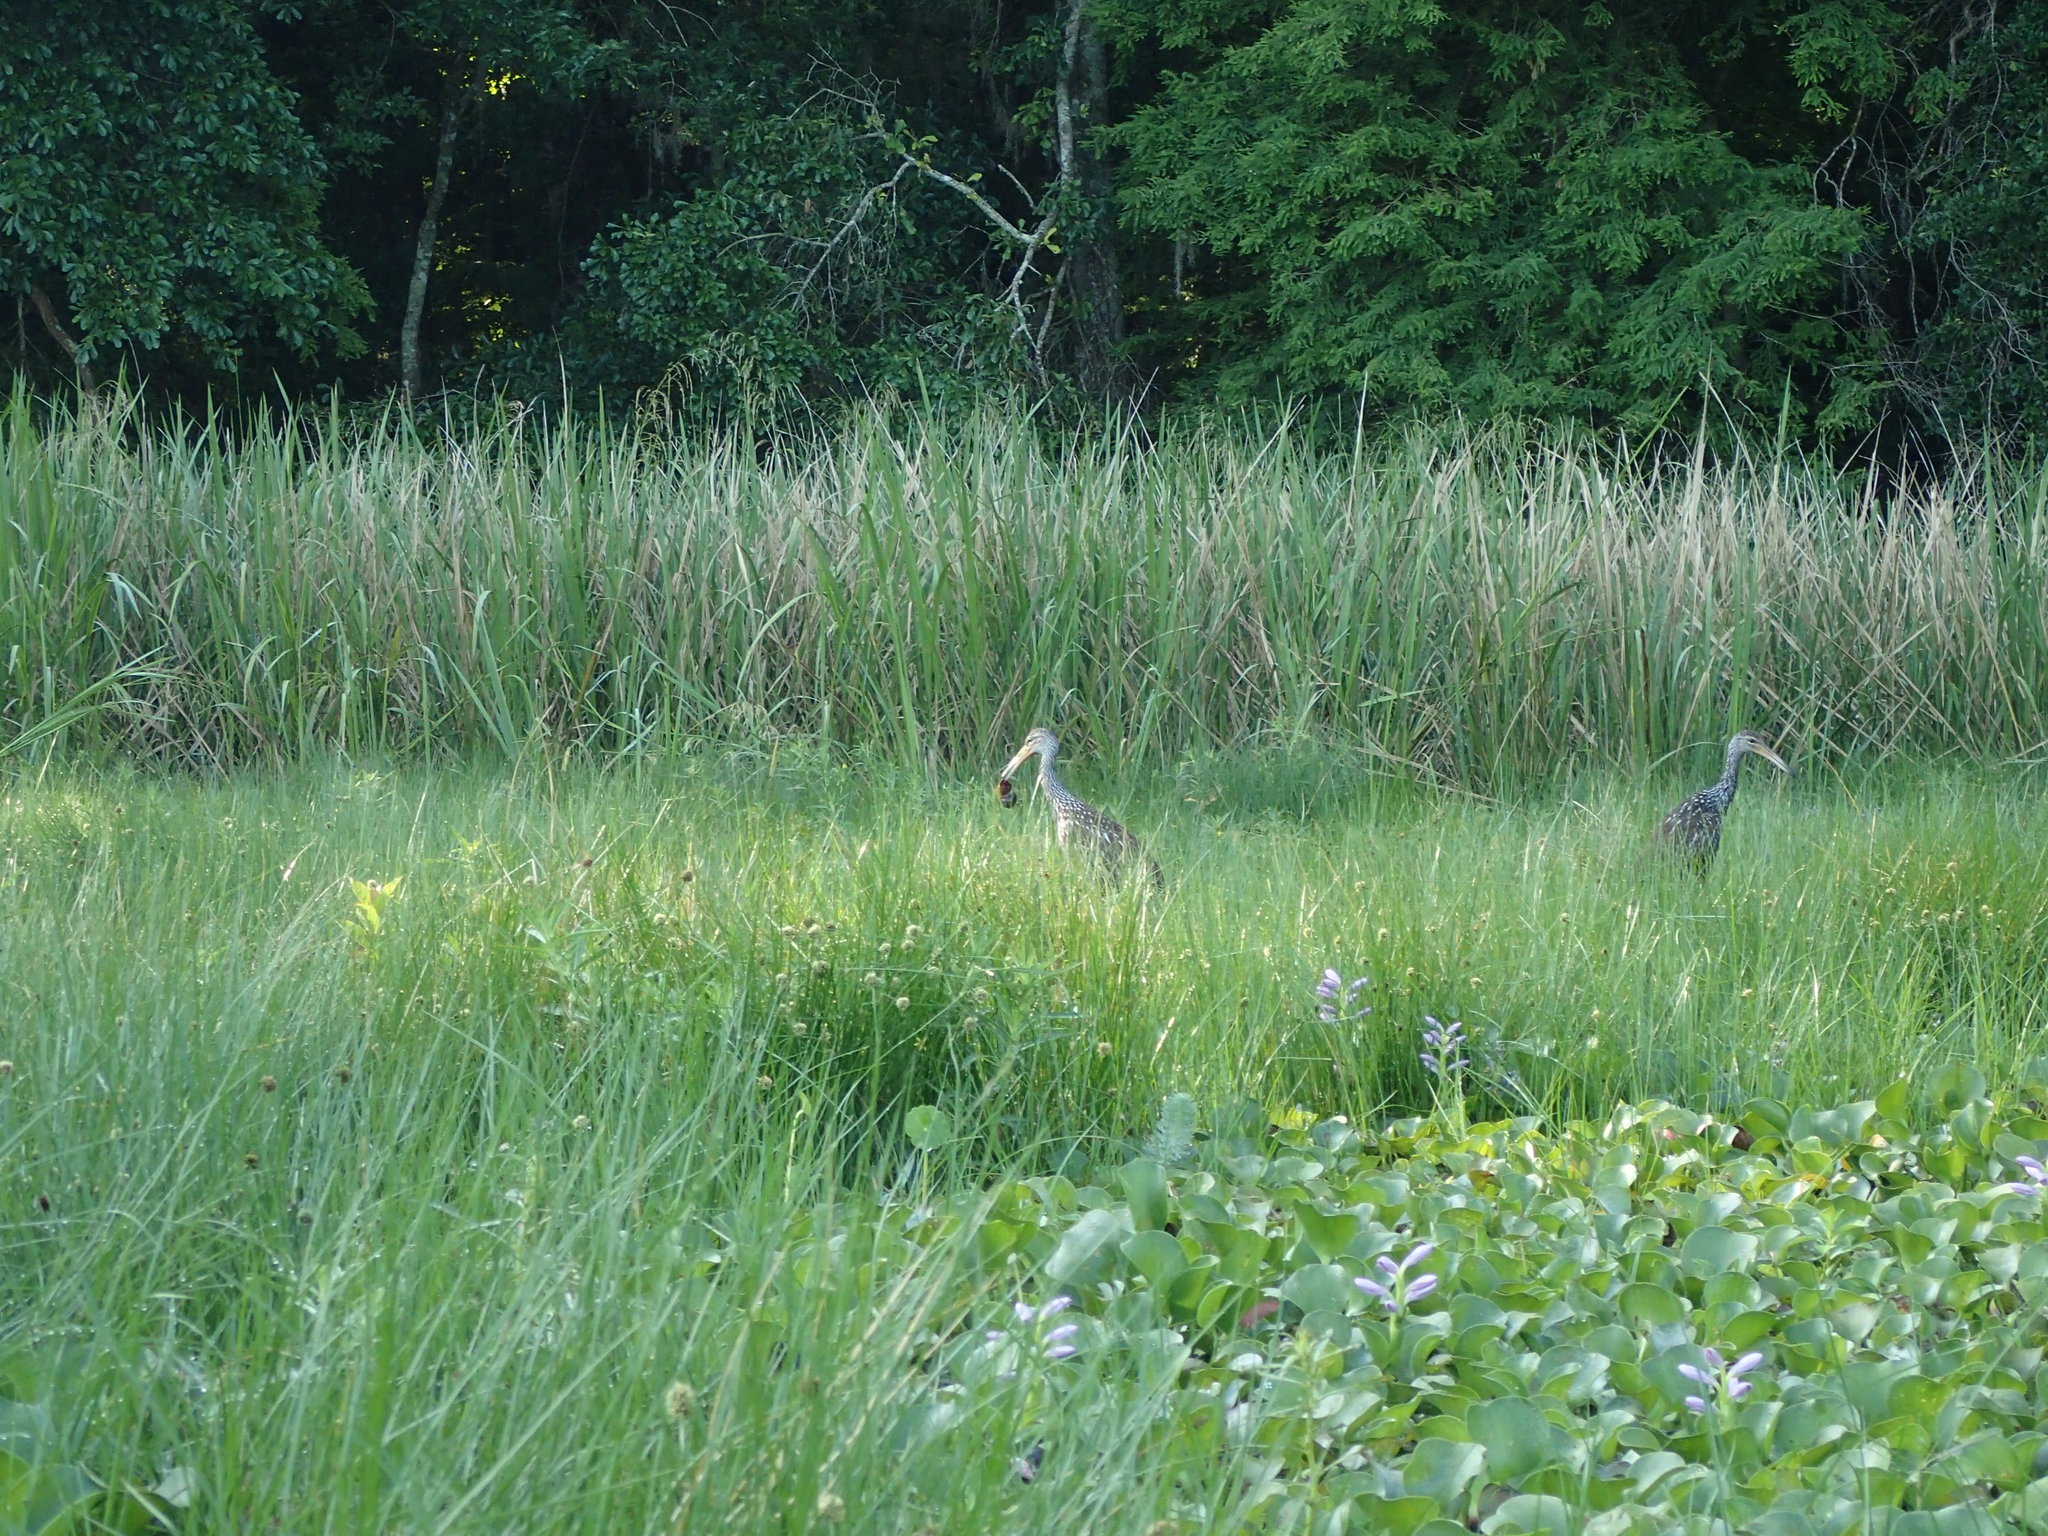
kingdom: Animalia
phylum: Chordata
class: Aves
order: Gruiformes
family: Aramidae
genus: Aramus
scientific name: Aramus guarauna
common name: Limpkin
